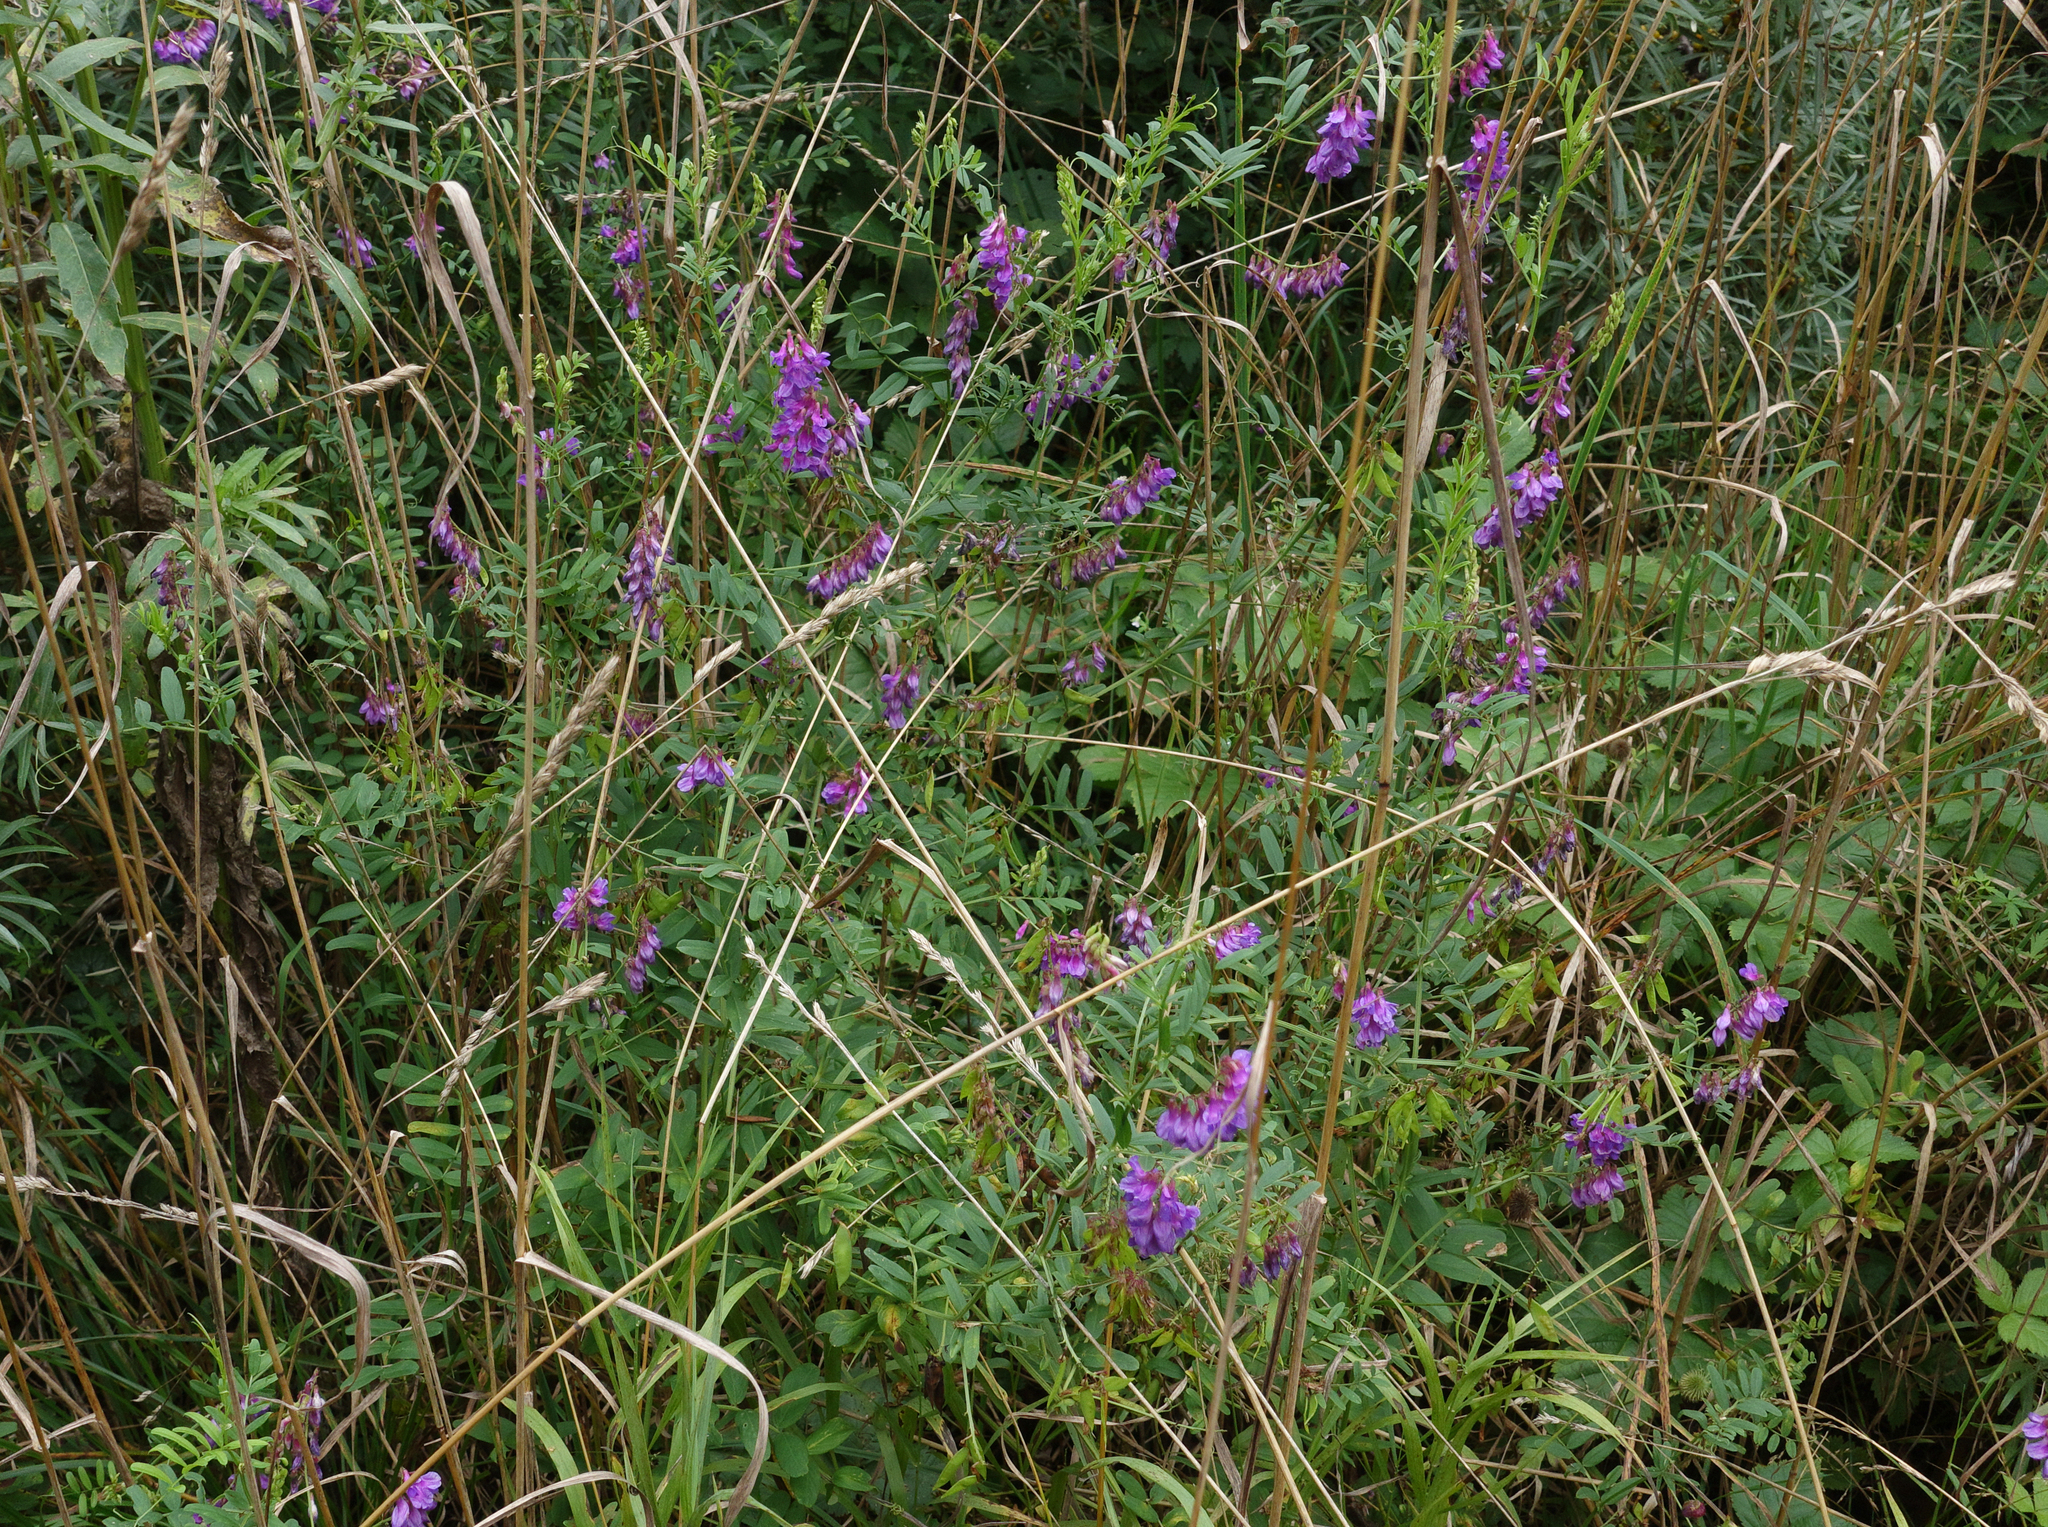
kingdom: Plantae
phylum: Tracheophyta
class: Magnoliopsida
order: Fabales
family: Fabaceae
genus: Vicia
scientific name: Vicia amoena
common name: Cheder ebs
